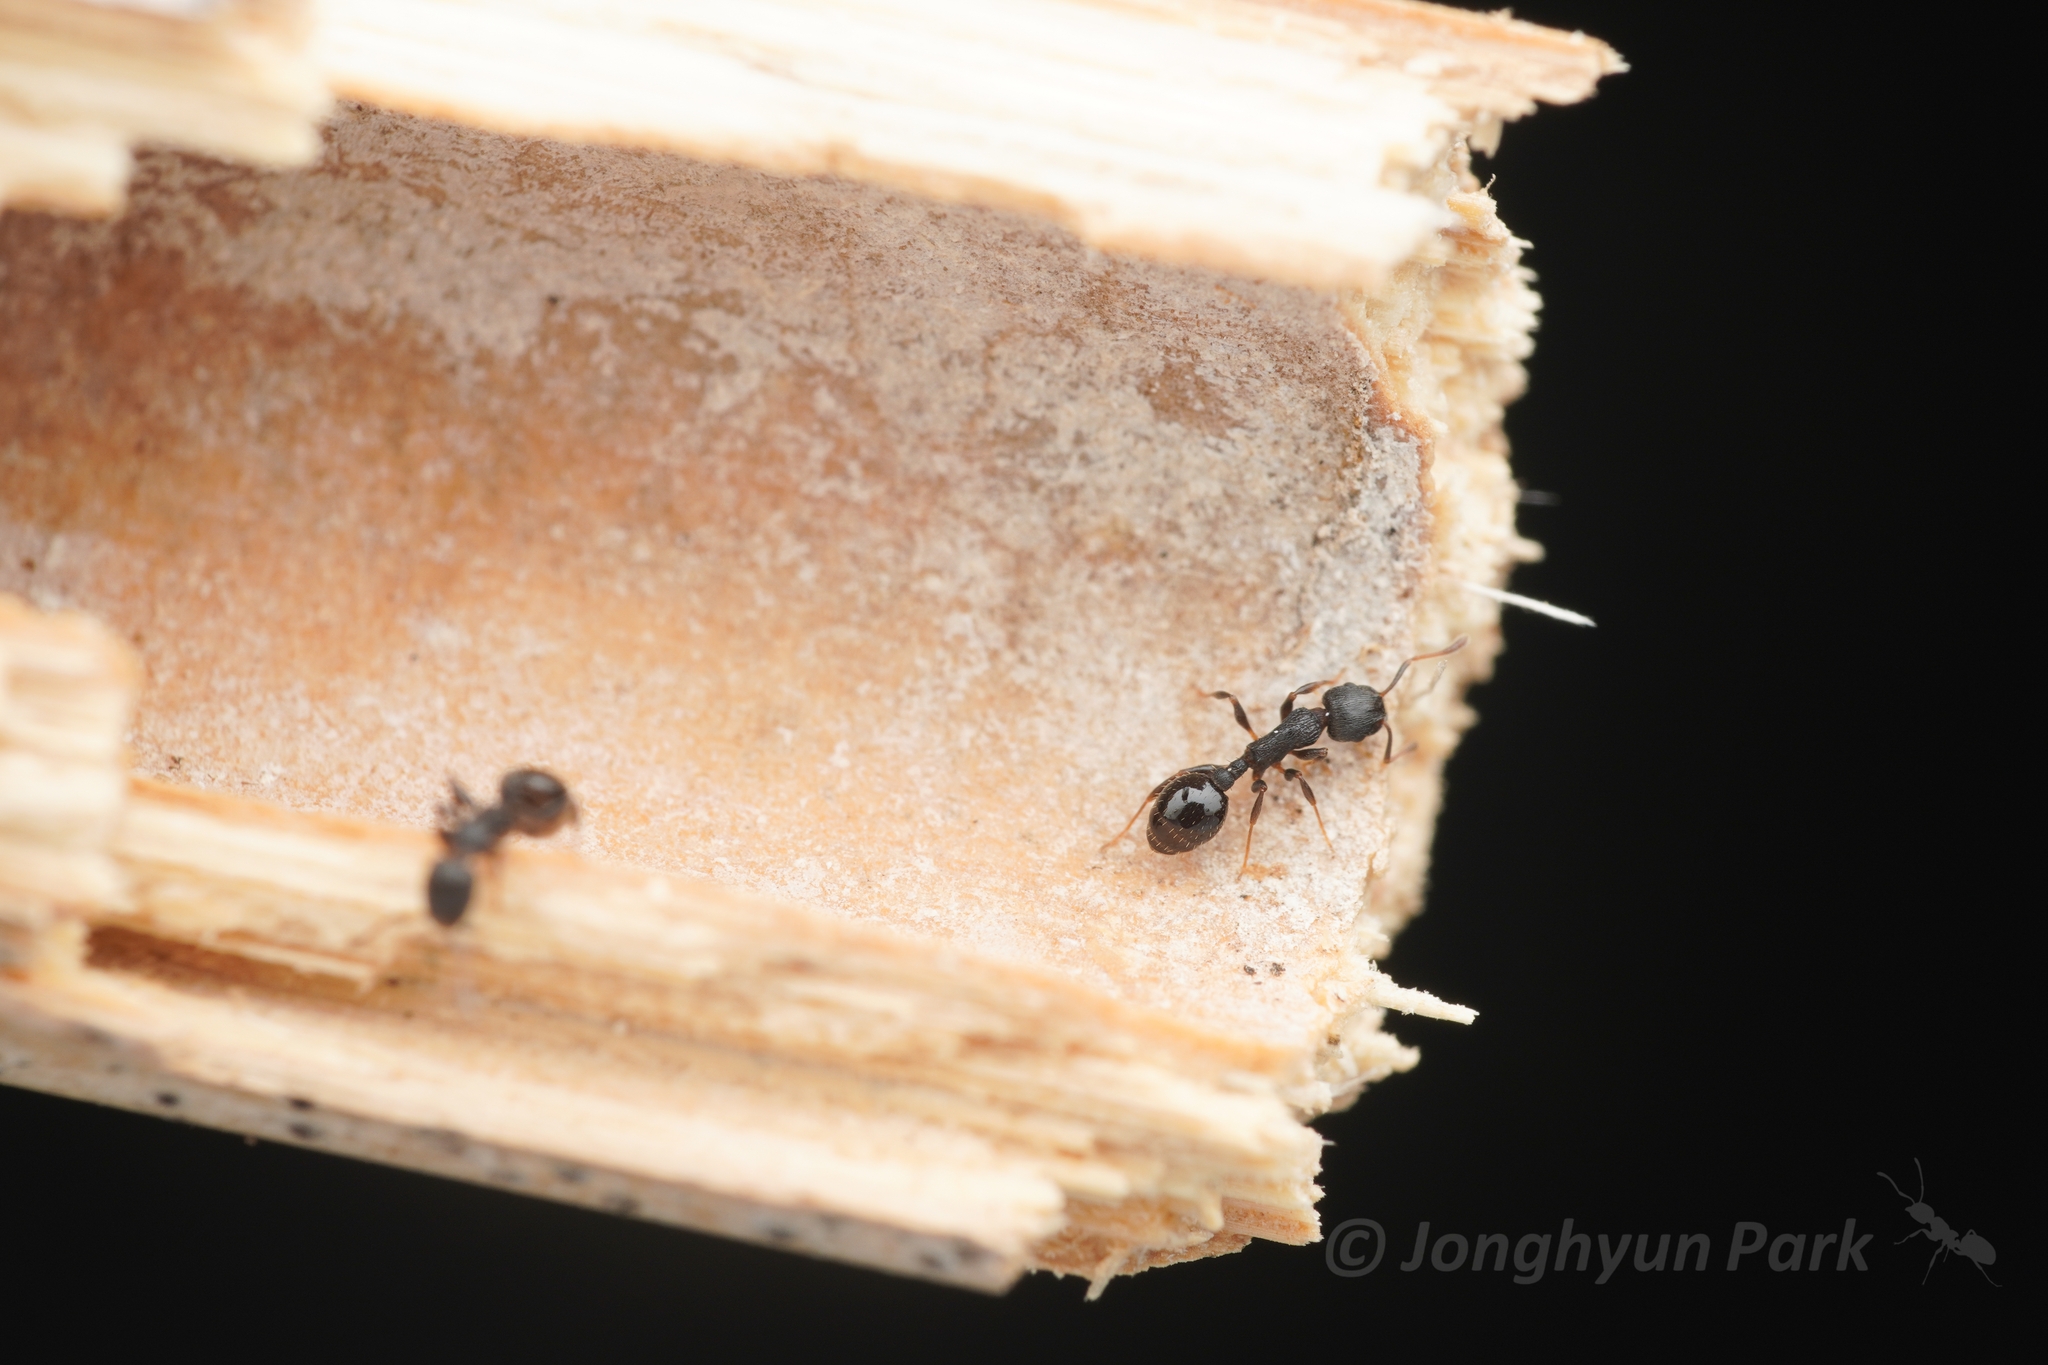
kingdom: Animalia
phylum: Arthropoda
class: Insecta
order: Hymenoptera
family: Formicidae
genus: Temnothorax
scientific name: Temnothorax
